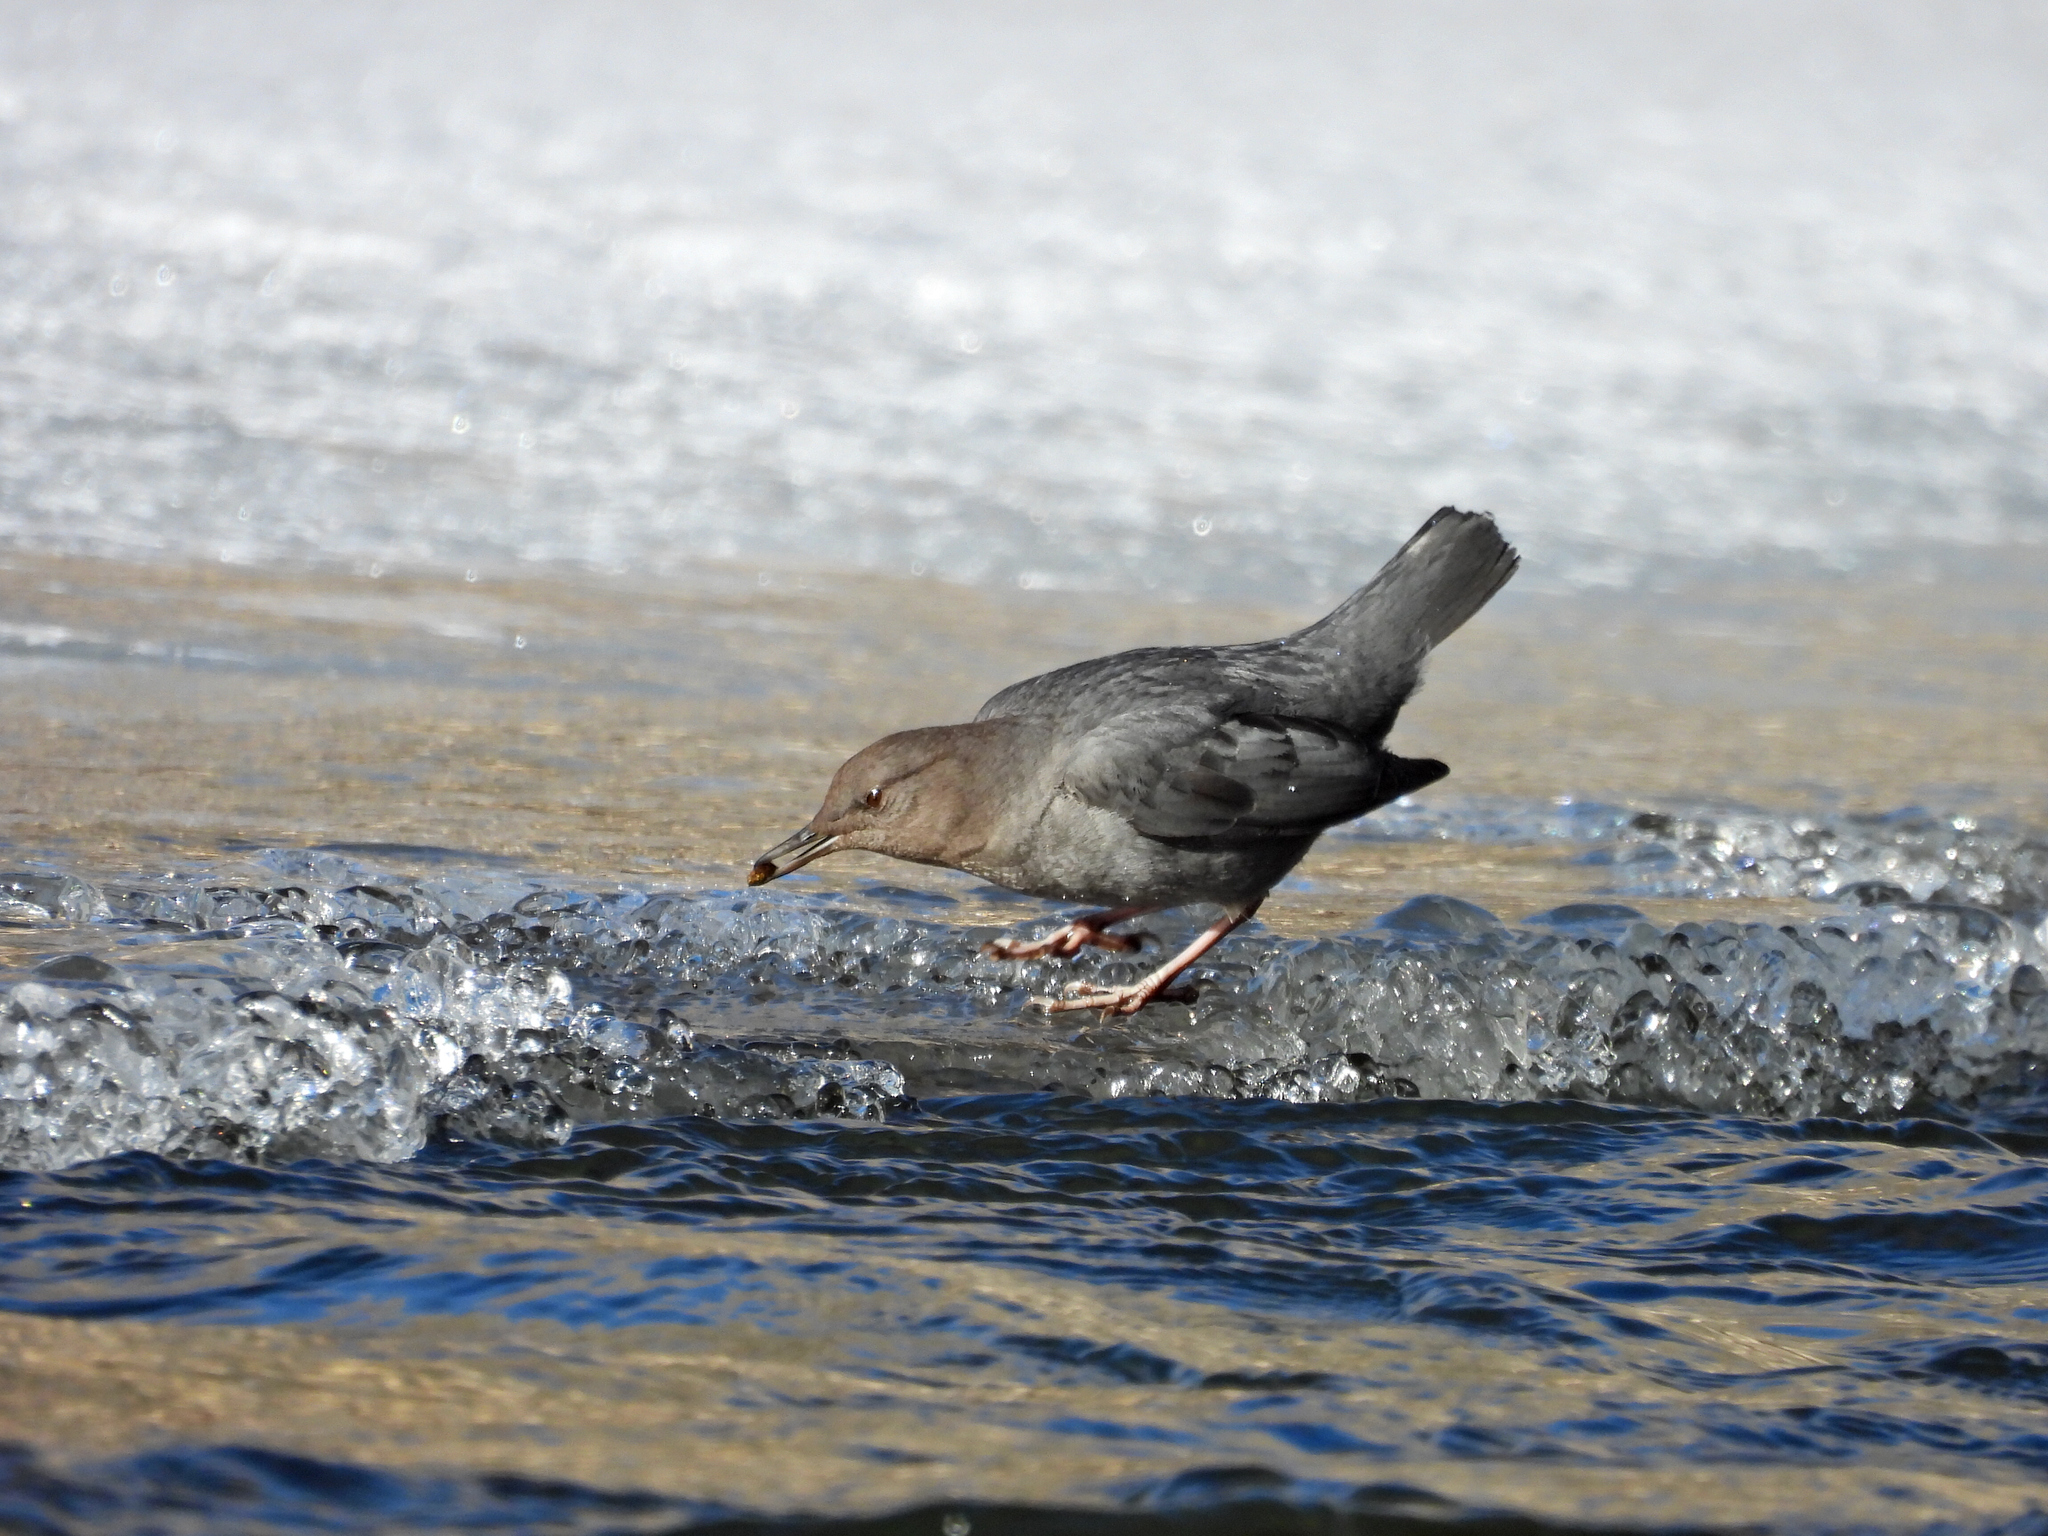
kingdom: Animalia
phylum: Chordata
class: Aves
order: Passeriformes
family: Cinclidae
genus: Cinclus
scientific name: Cinclus mexicanus
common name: American dipper
